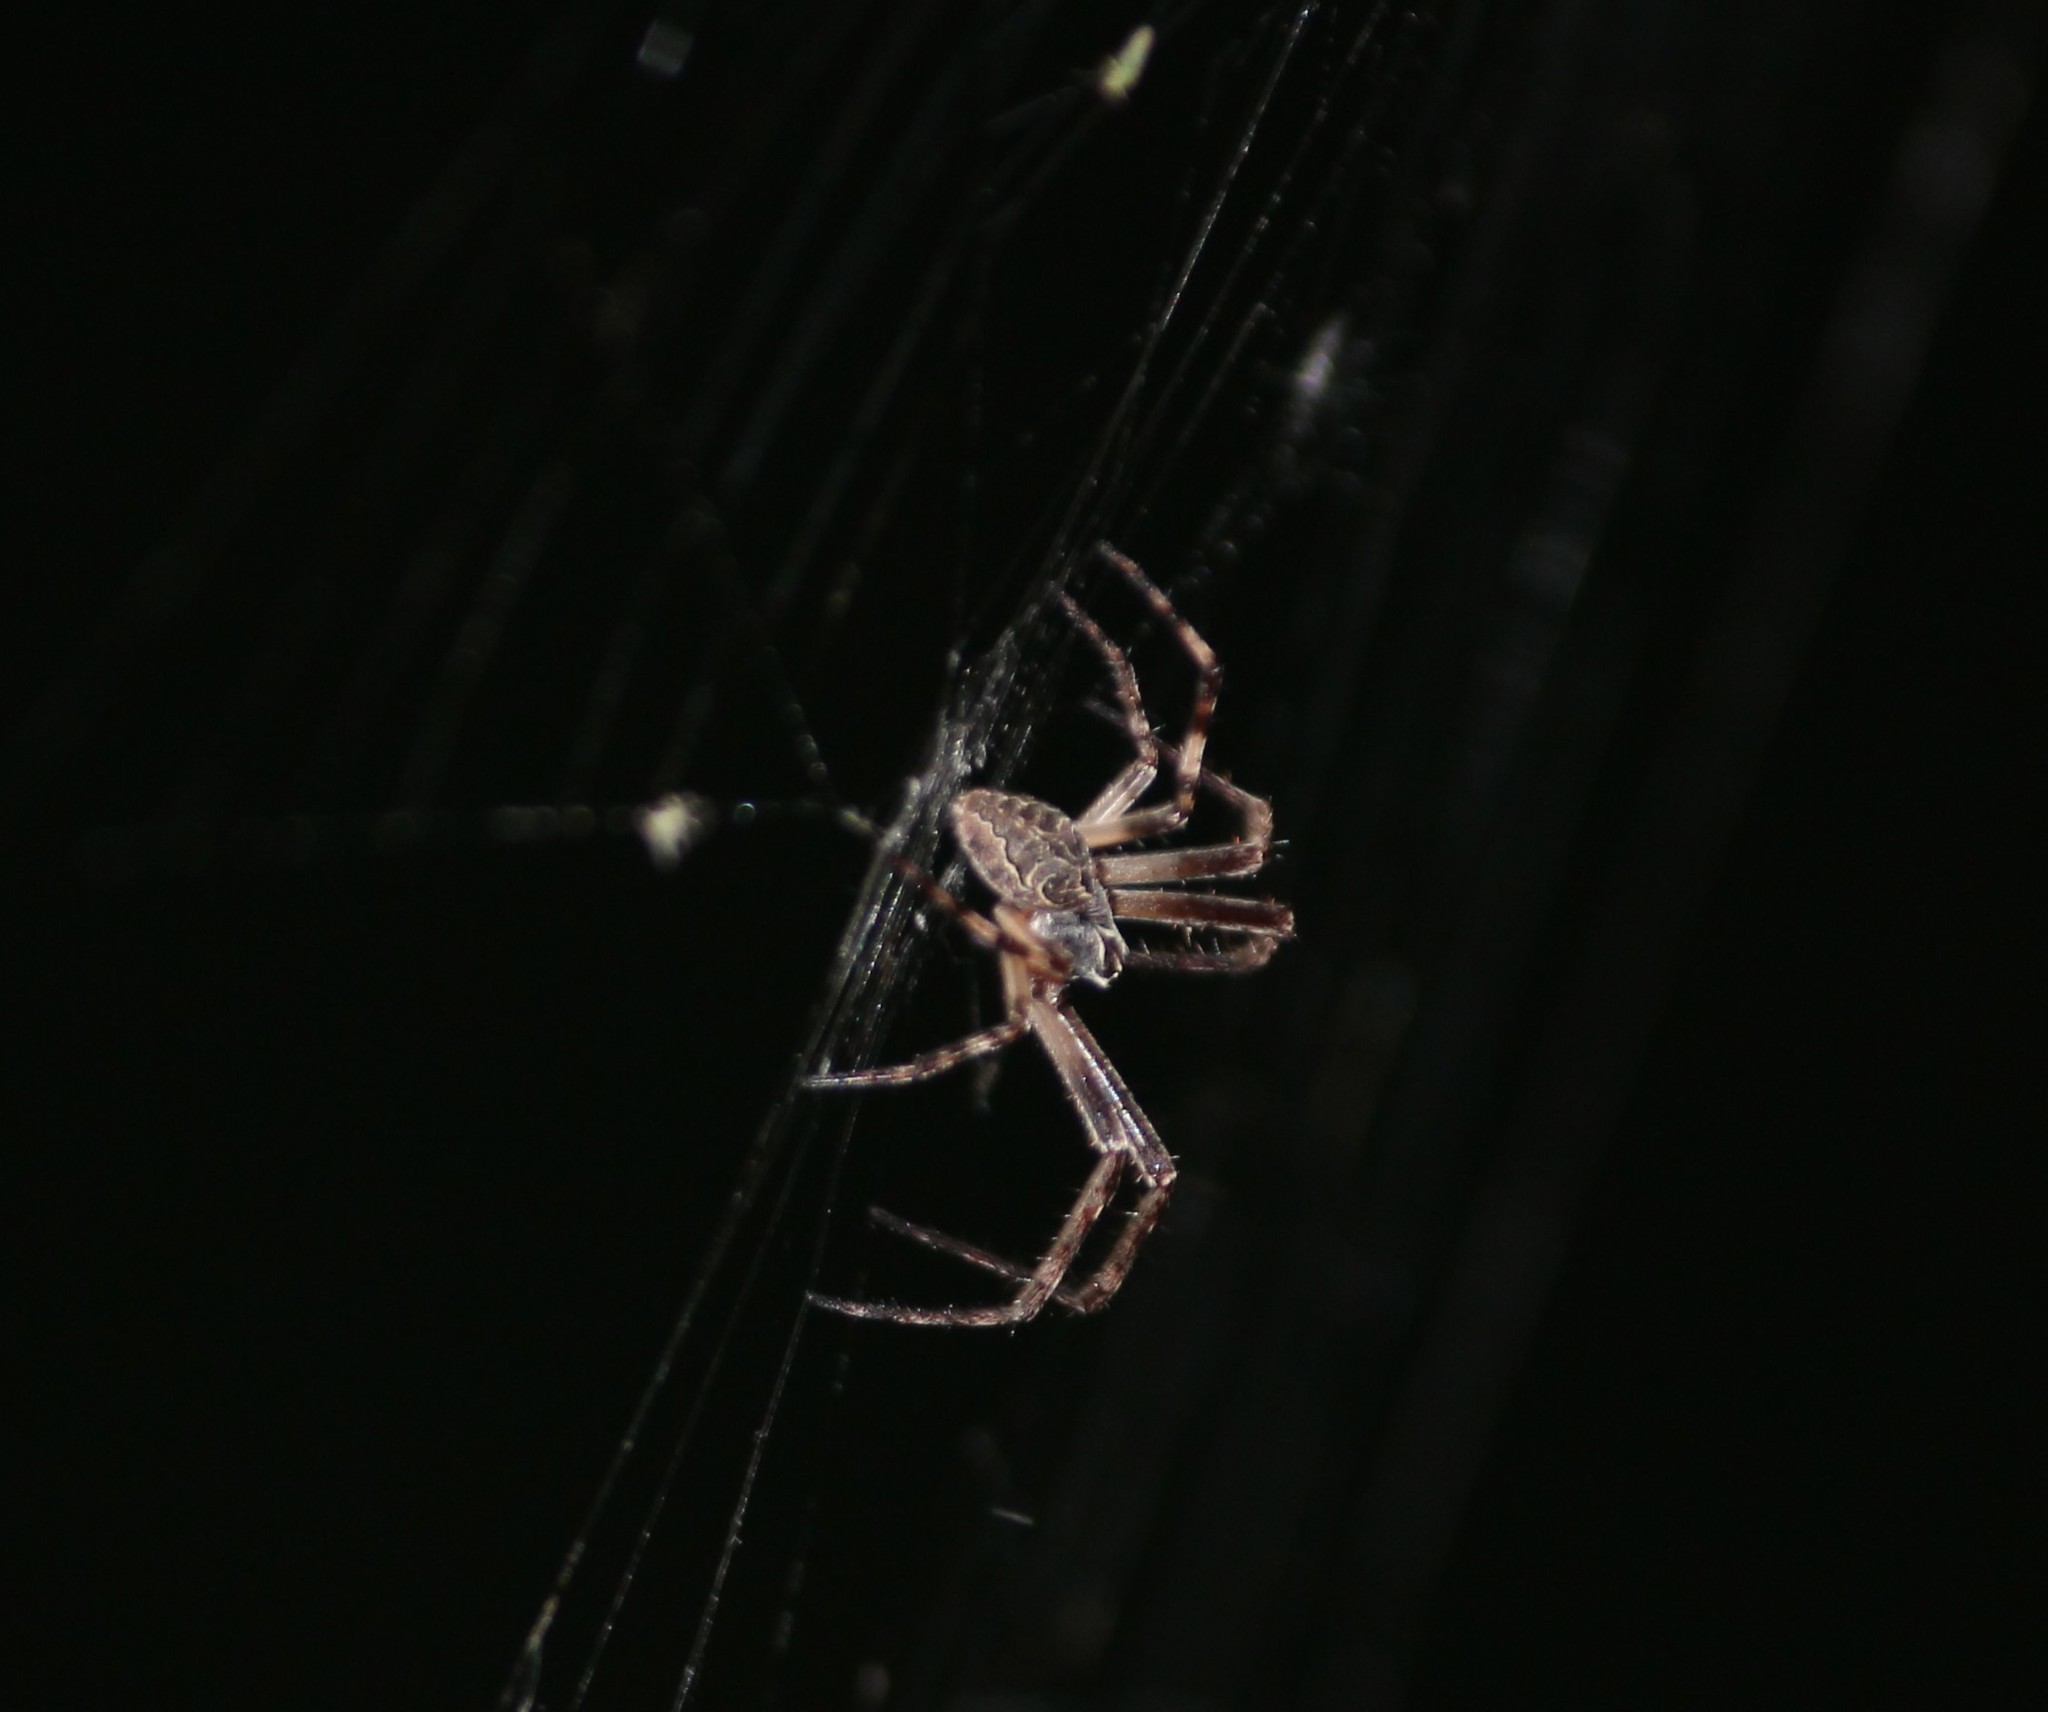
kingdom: Animalia
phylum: Arthropoda
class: Arachnida
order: Araneae
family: Araneidae
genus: Larinioides
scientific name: Larinioides sclopetarius
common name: Bridge orbweaver
